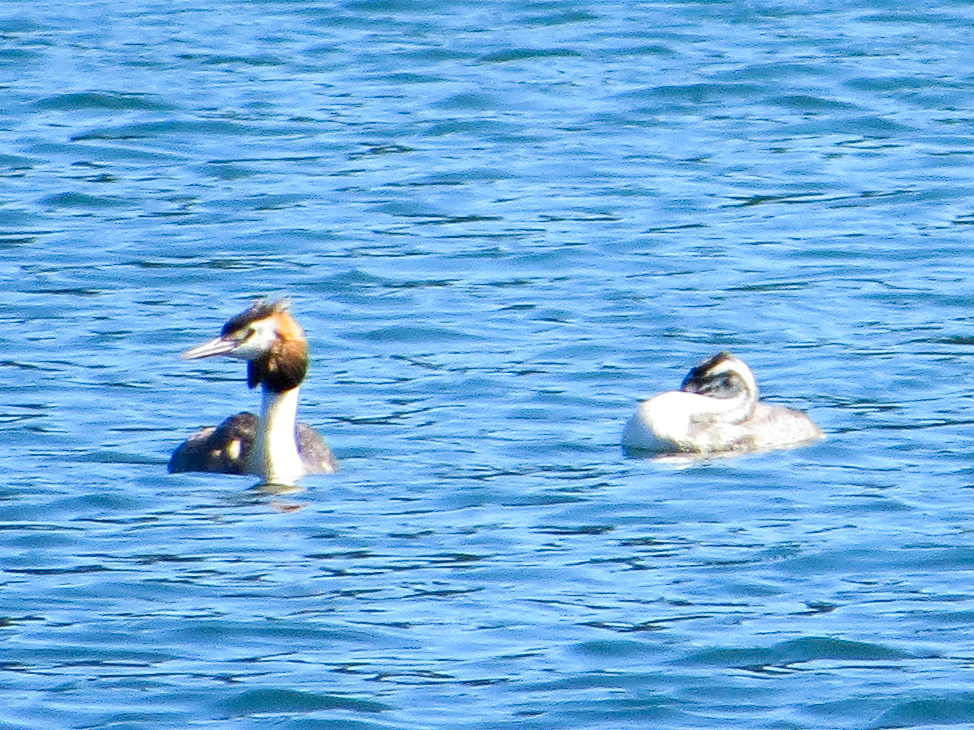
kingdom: Animalia
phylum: Chordata
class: Aves
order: Podicipediformes
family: Podicipedidae
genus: Podiceps
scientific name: Podiceps cristatus
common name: Great crested grebe
